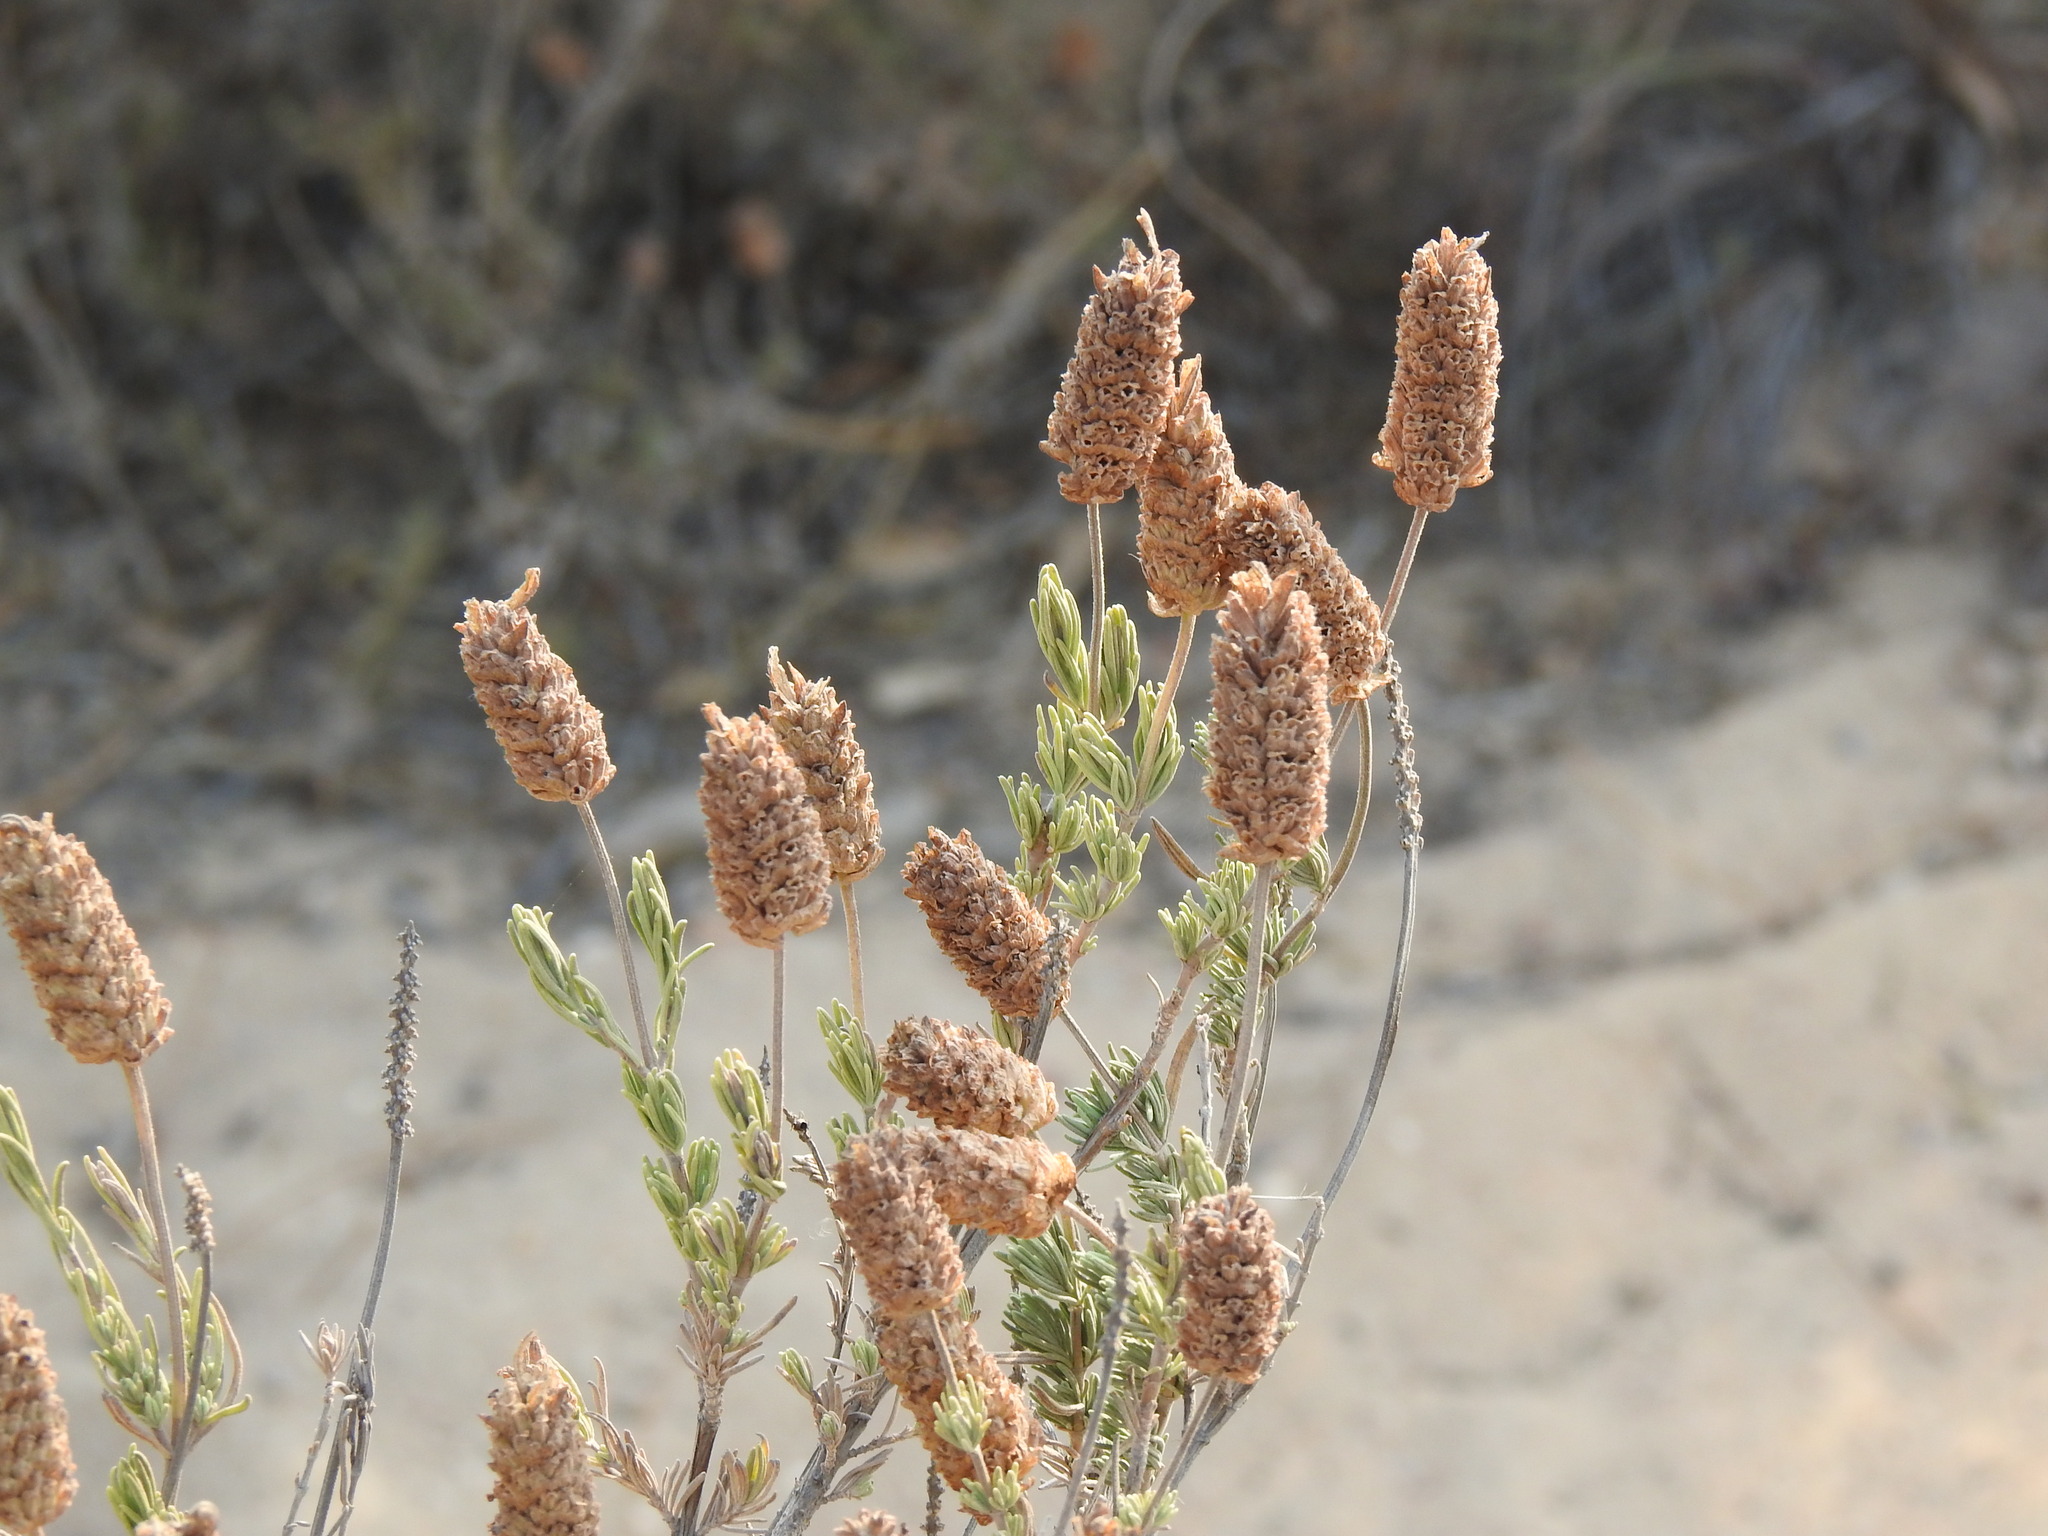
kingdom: Plantae
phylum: Tracheophyta
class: Magnoliopsida
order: Lamiales
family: Lamiaceae
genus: Lavandula
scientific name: Lavandula stoechas
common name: French lavender
